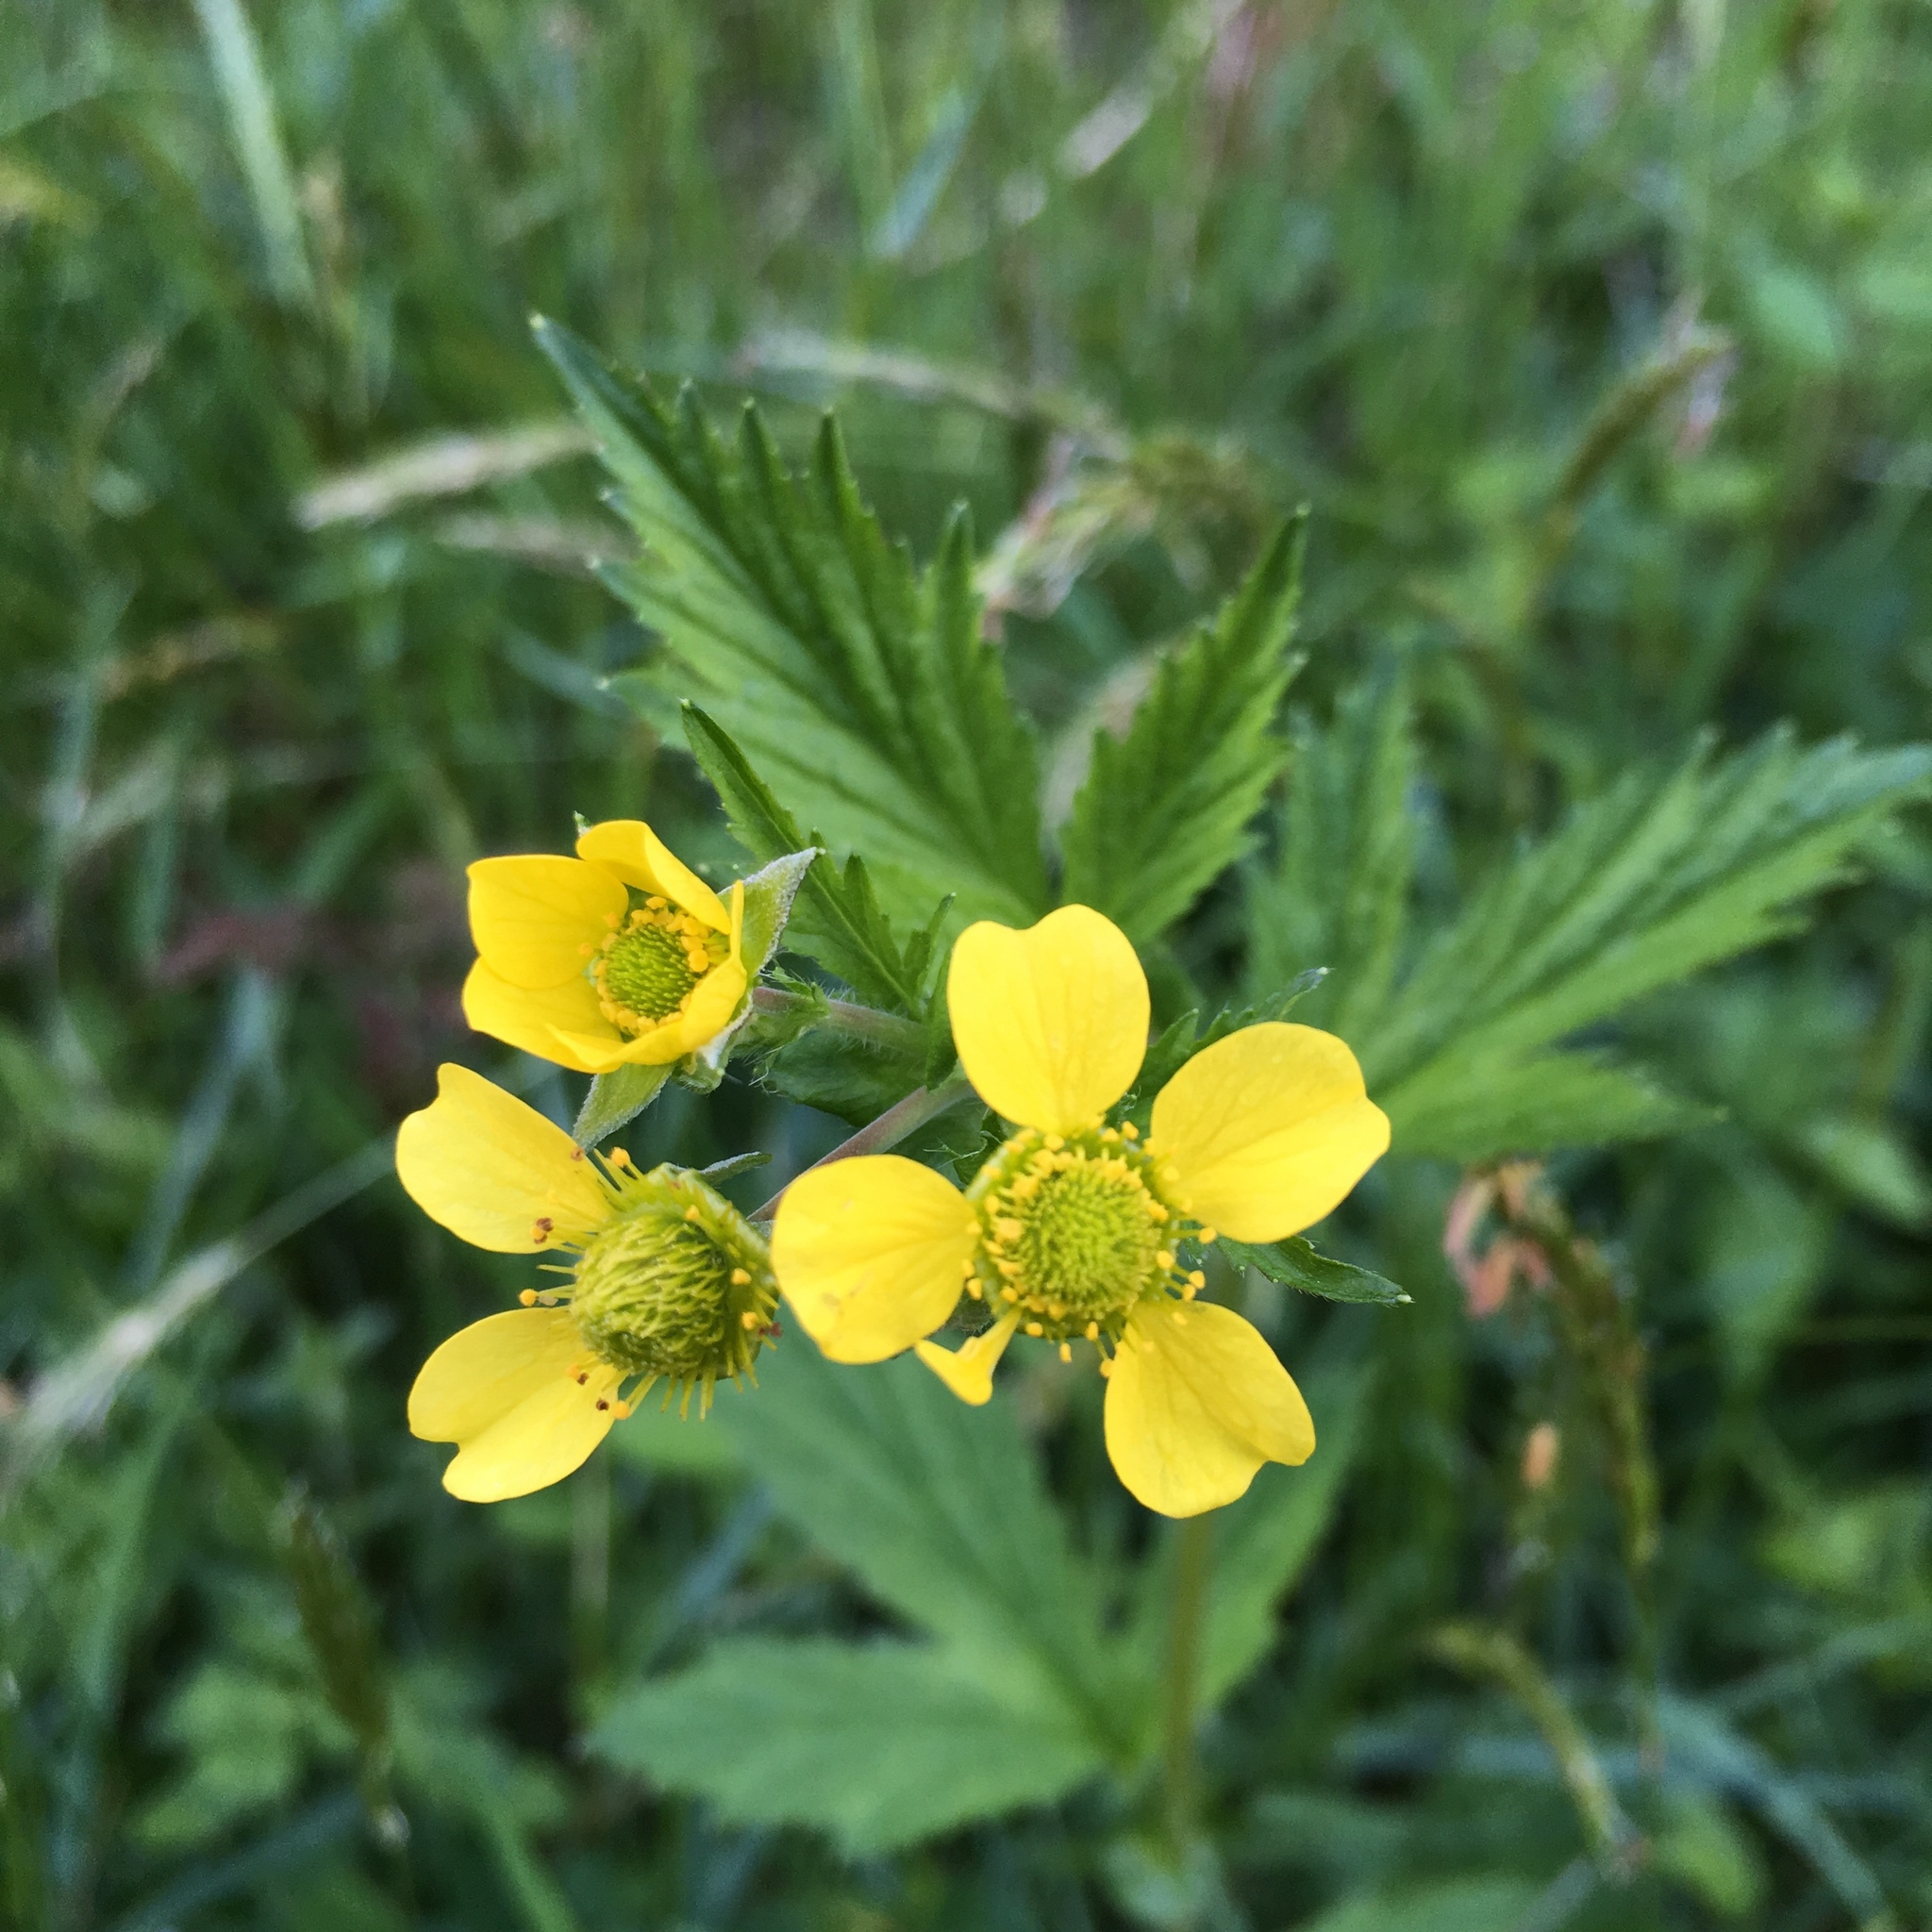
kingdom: Plantae
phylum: Tracheophyta
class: Magnoliopsida
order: Rosales
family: Rosaceae
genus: Geum
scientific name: Geum macrophyllum
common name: Large-leaved avens
